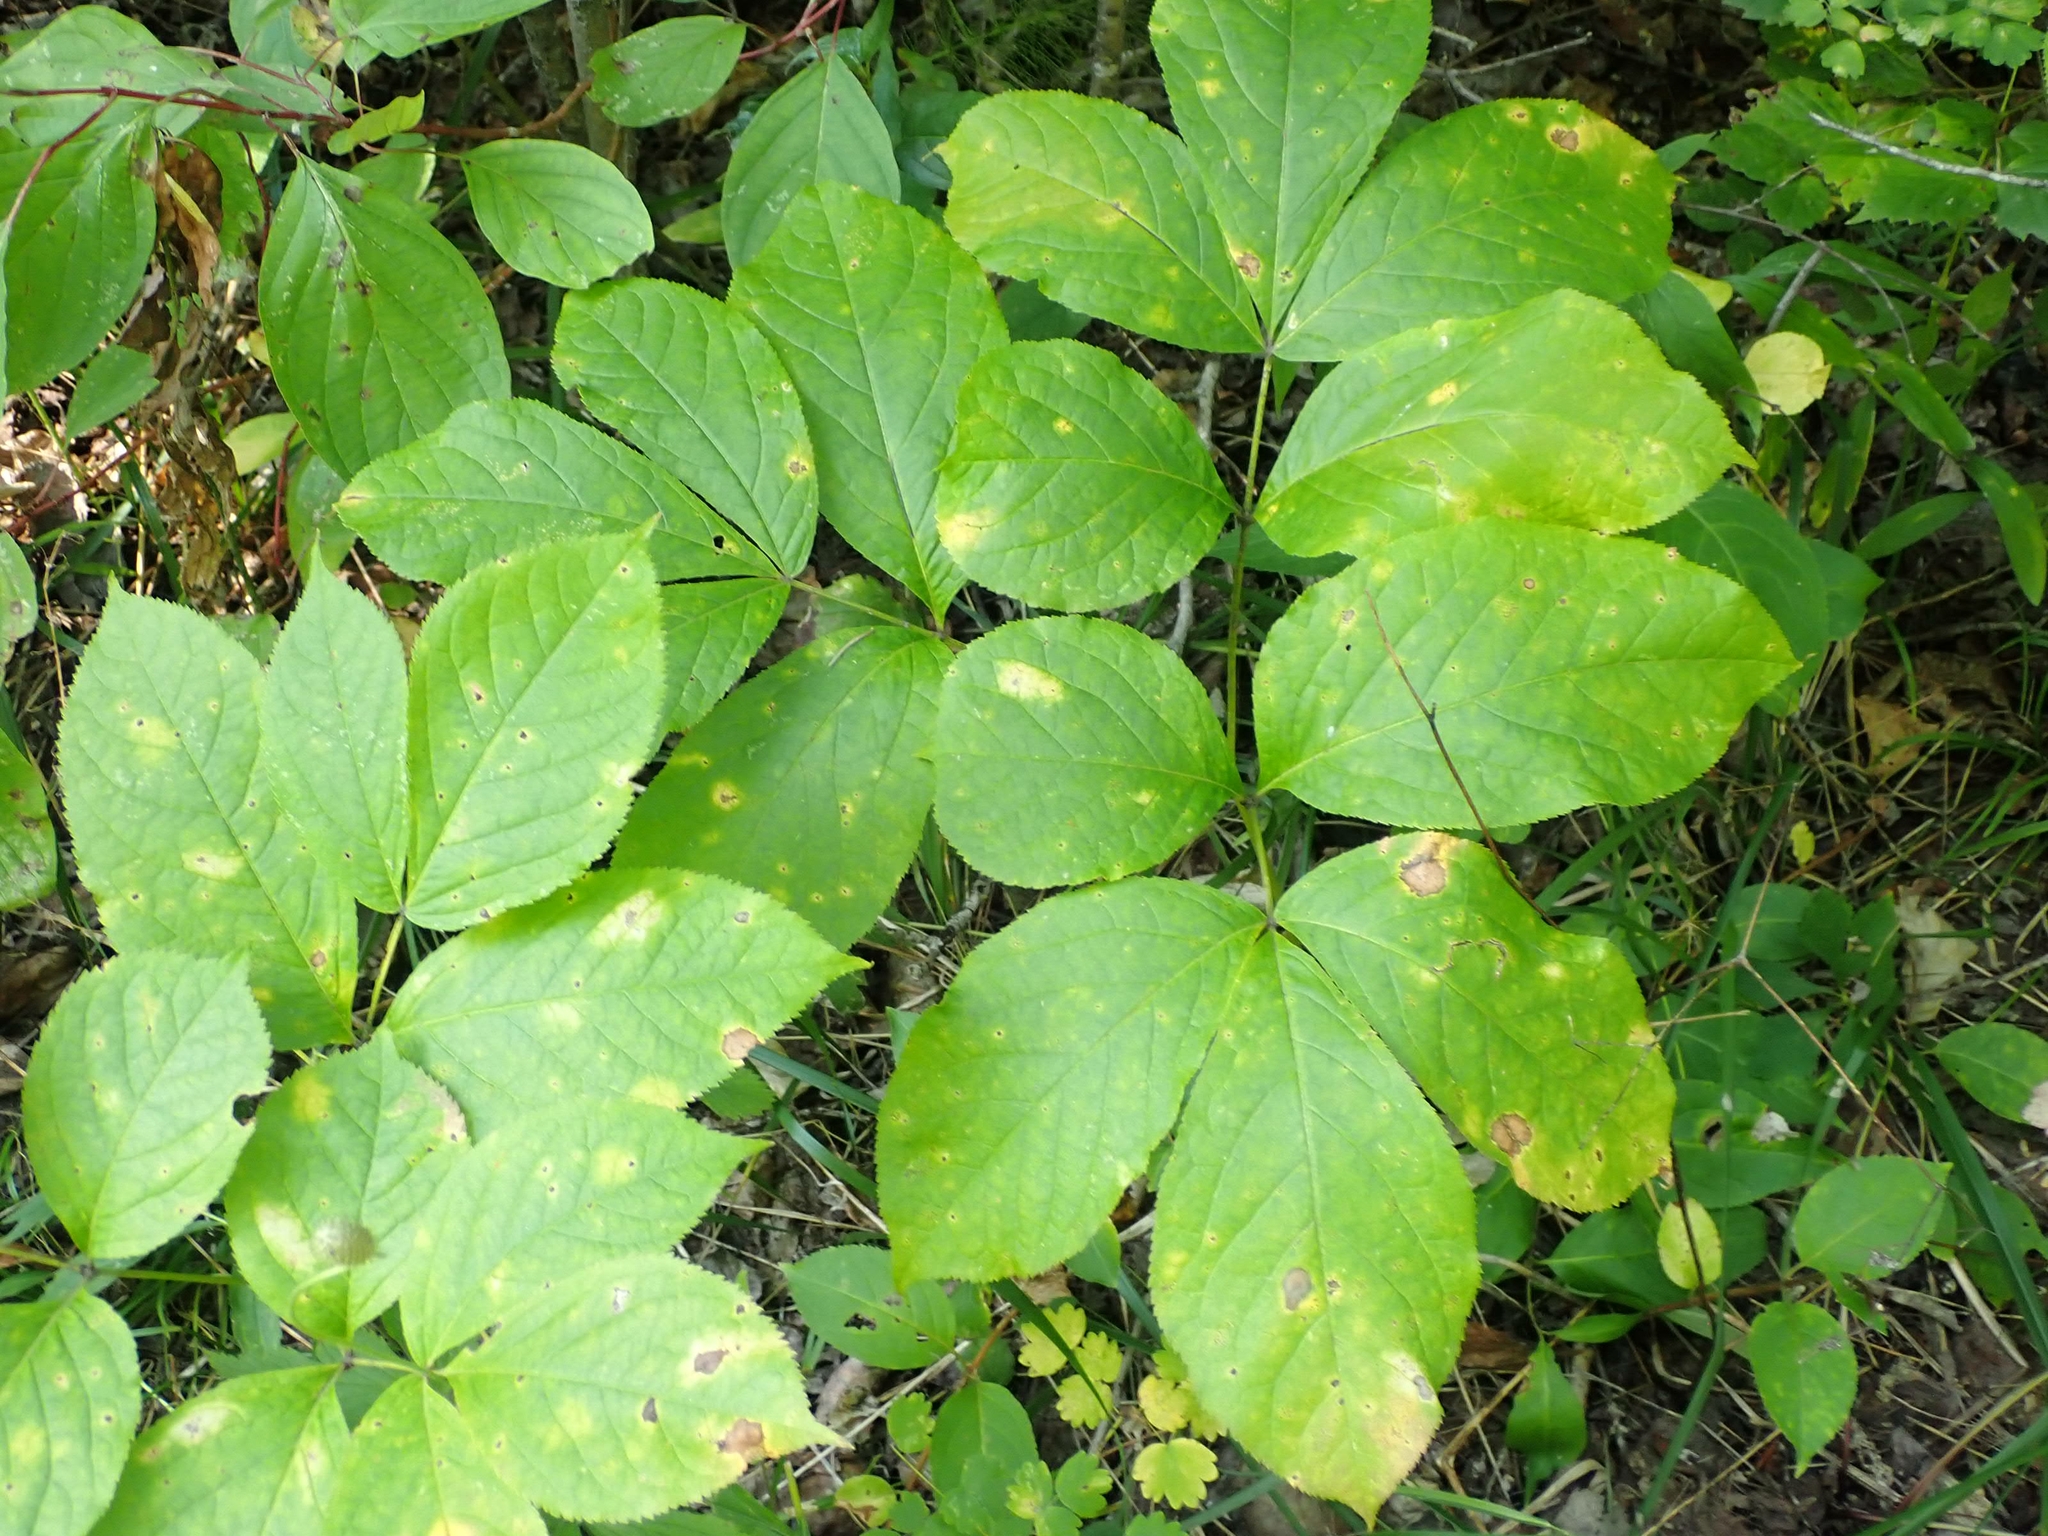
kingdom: Plantae
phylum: Tracheophyta
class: Magnoliopsida
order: Apiales
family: Araliaceae
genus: Aralia
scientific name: Aralia nudicaulis
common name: Wild sarsaparilla
